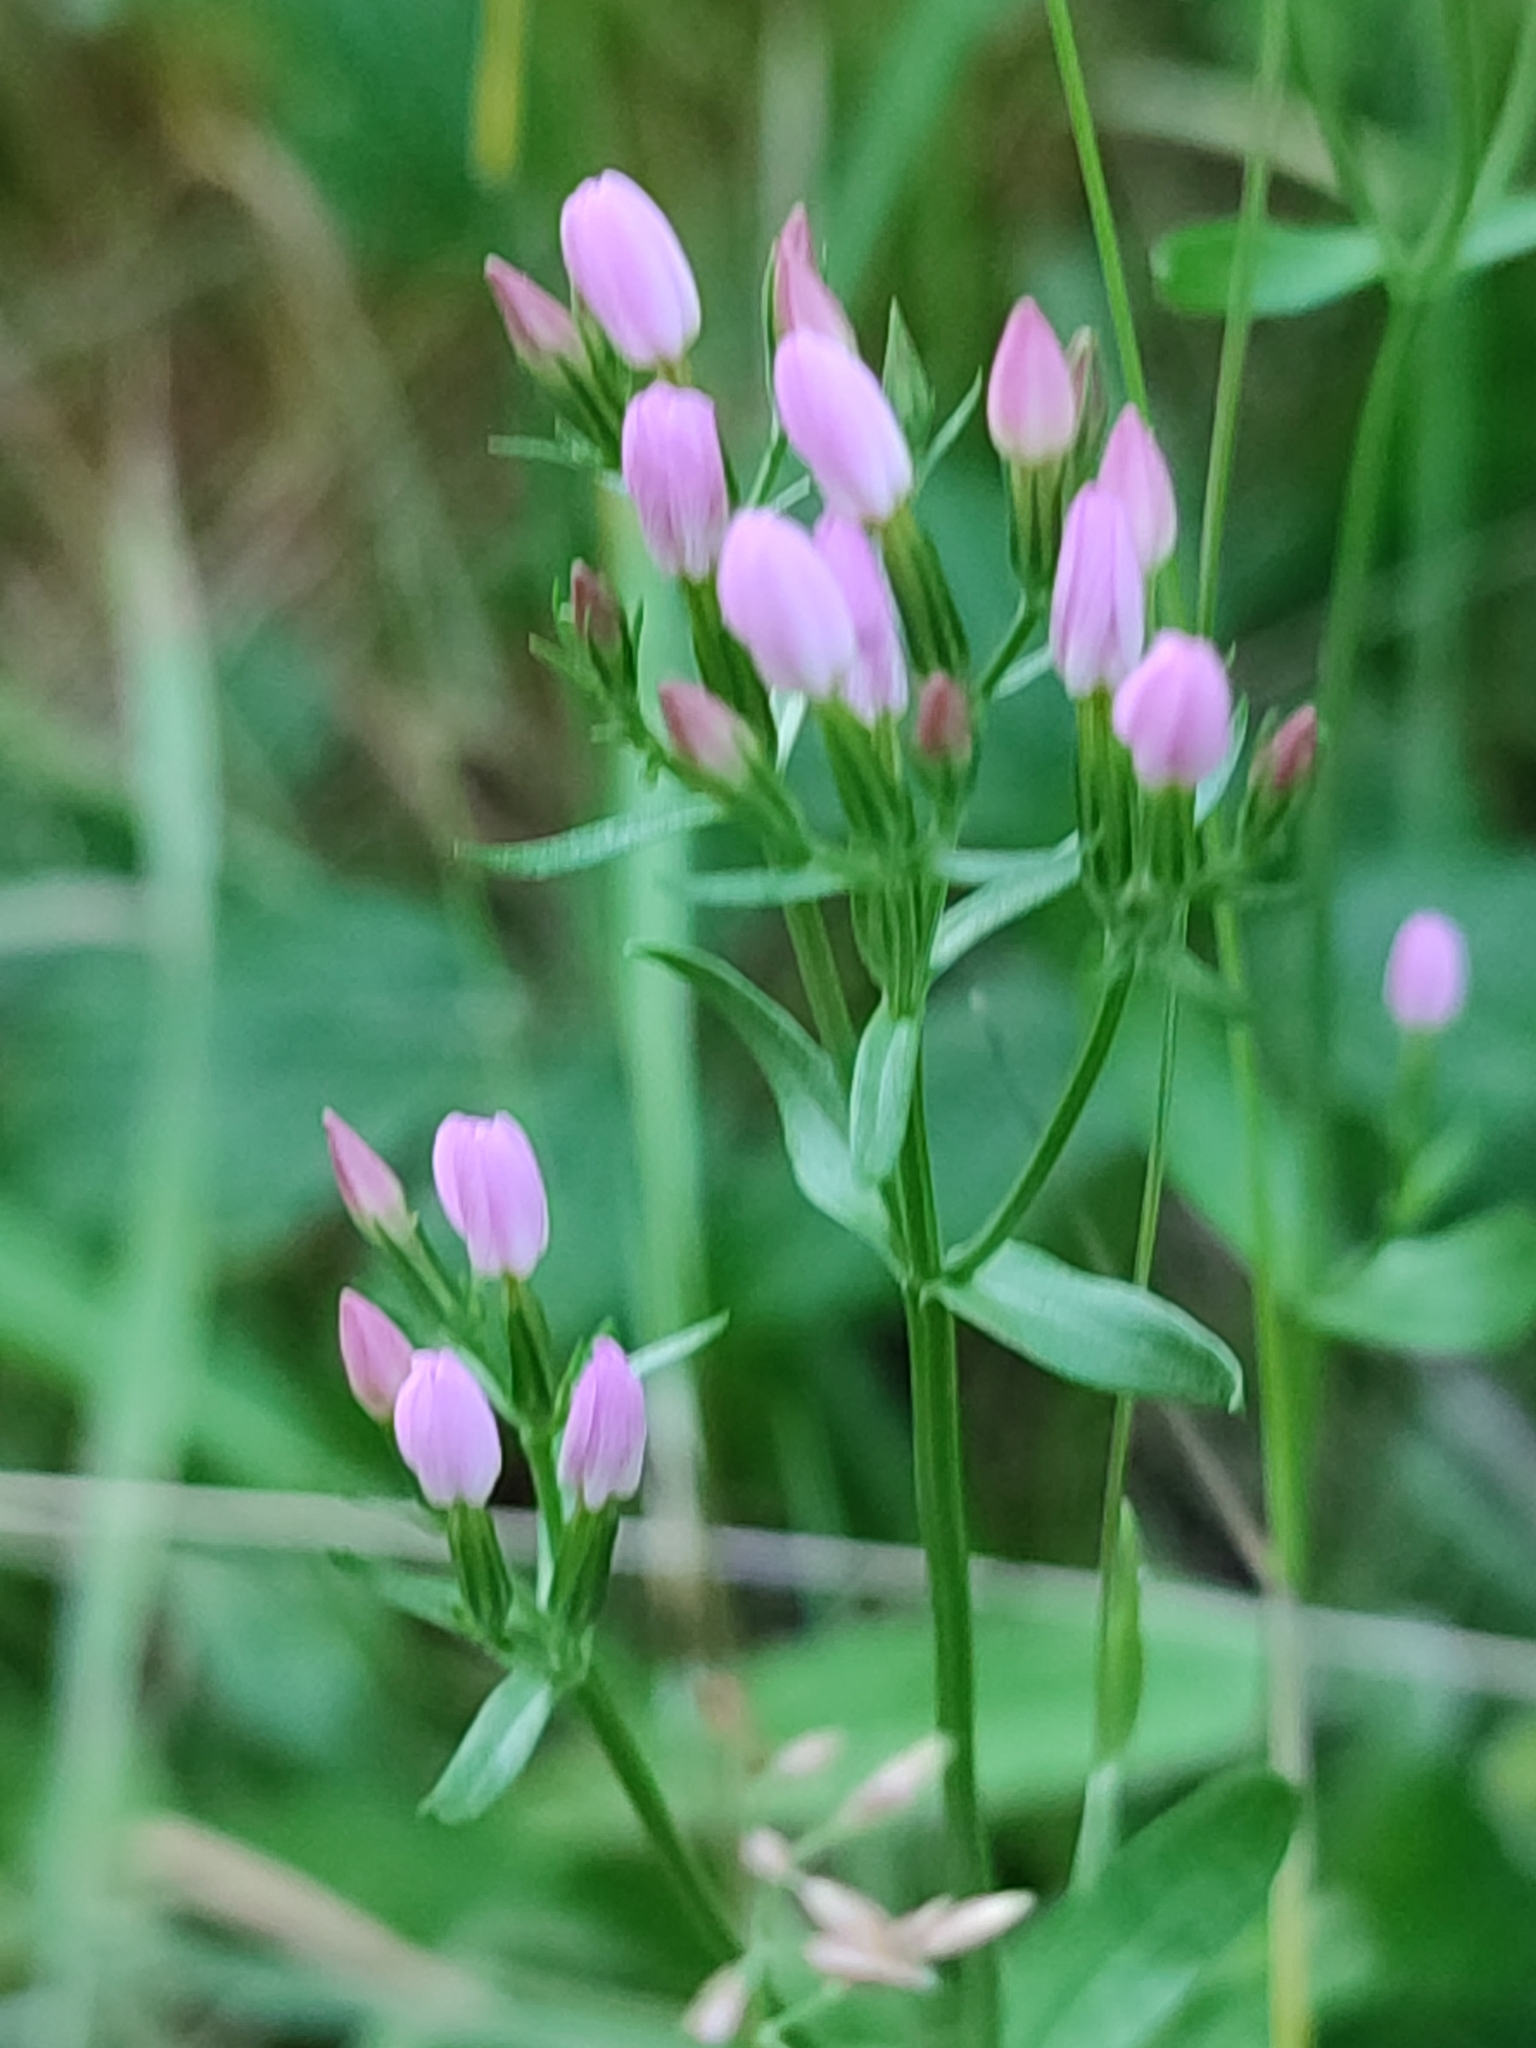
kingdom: Plantae
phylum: Tracheophyta
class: Magnoliopsida
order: Gentianales
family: Gentianaceae
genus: Centaurium
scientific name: Centaurium erythraea
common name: Common centaury
